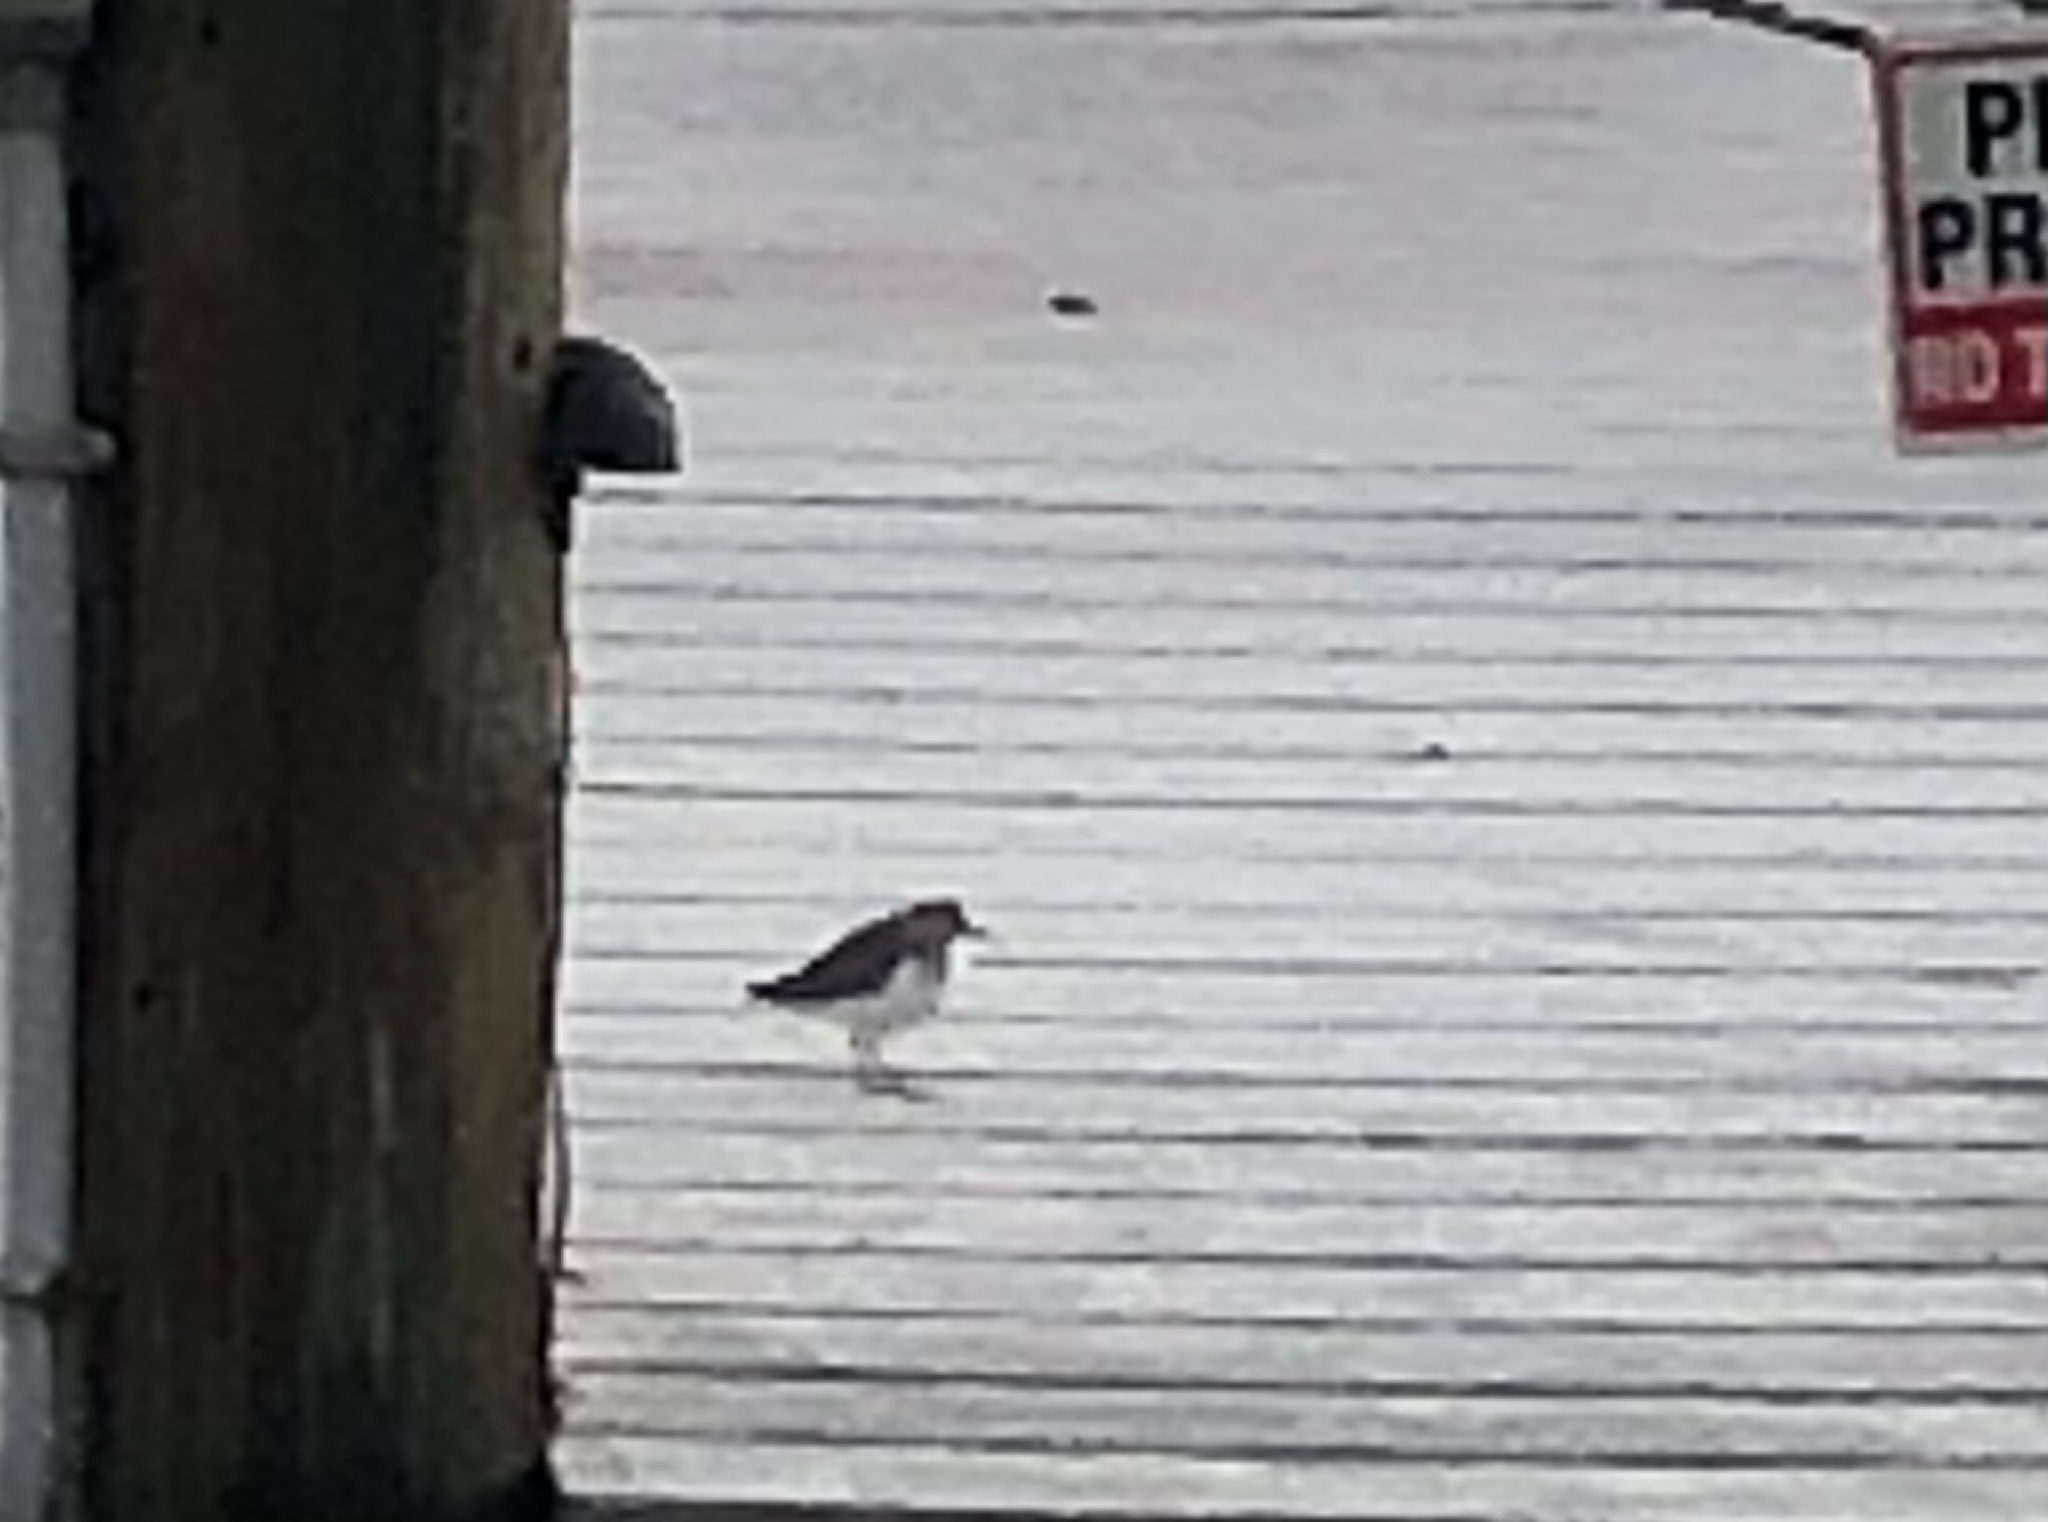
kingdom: Animalia
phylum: Chordata
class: Aves
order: Charadriiformes
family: Scolopacidae
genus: Actitis
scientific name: Actitis macularius
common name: Spotted sandpiper
